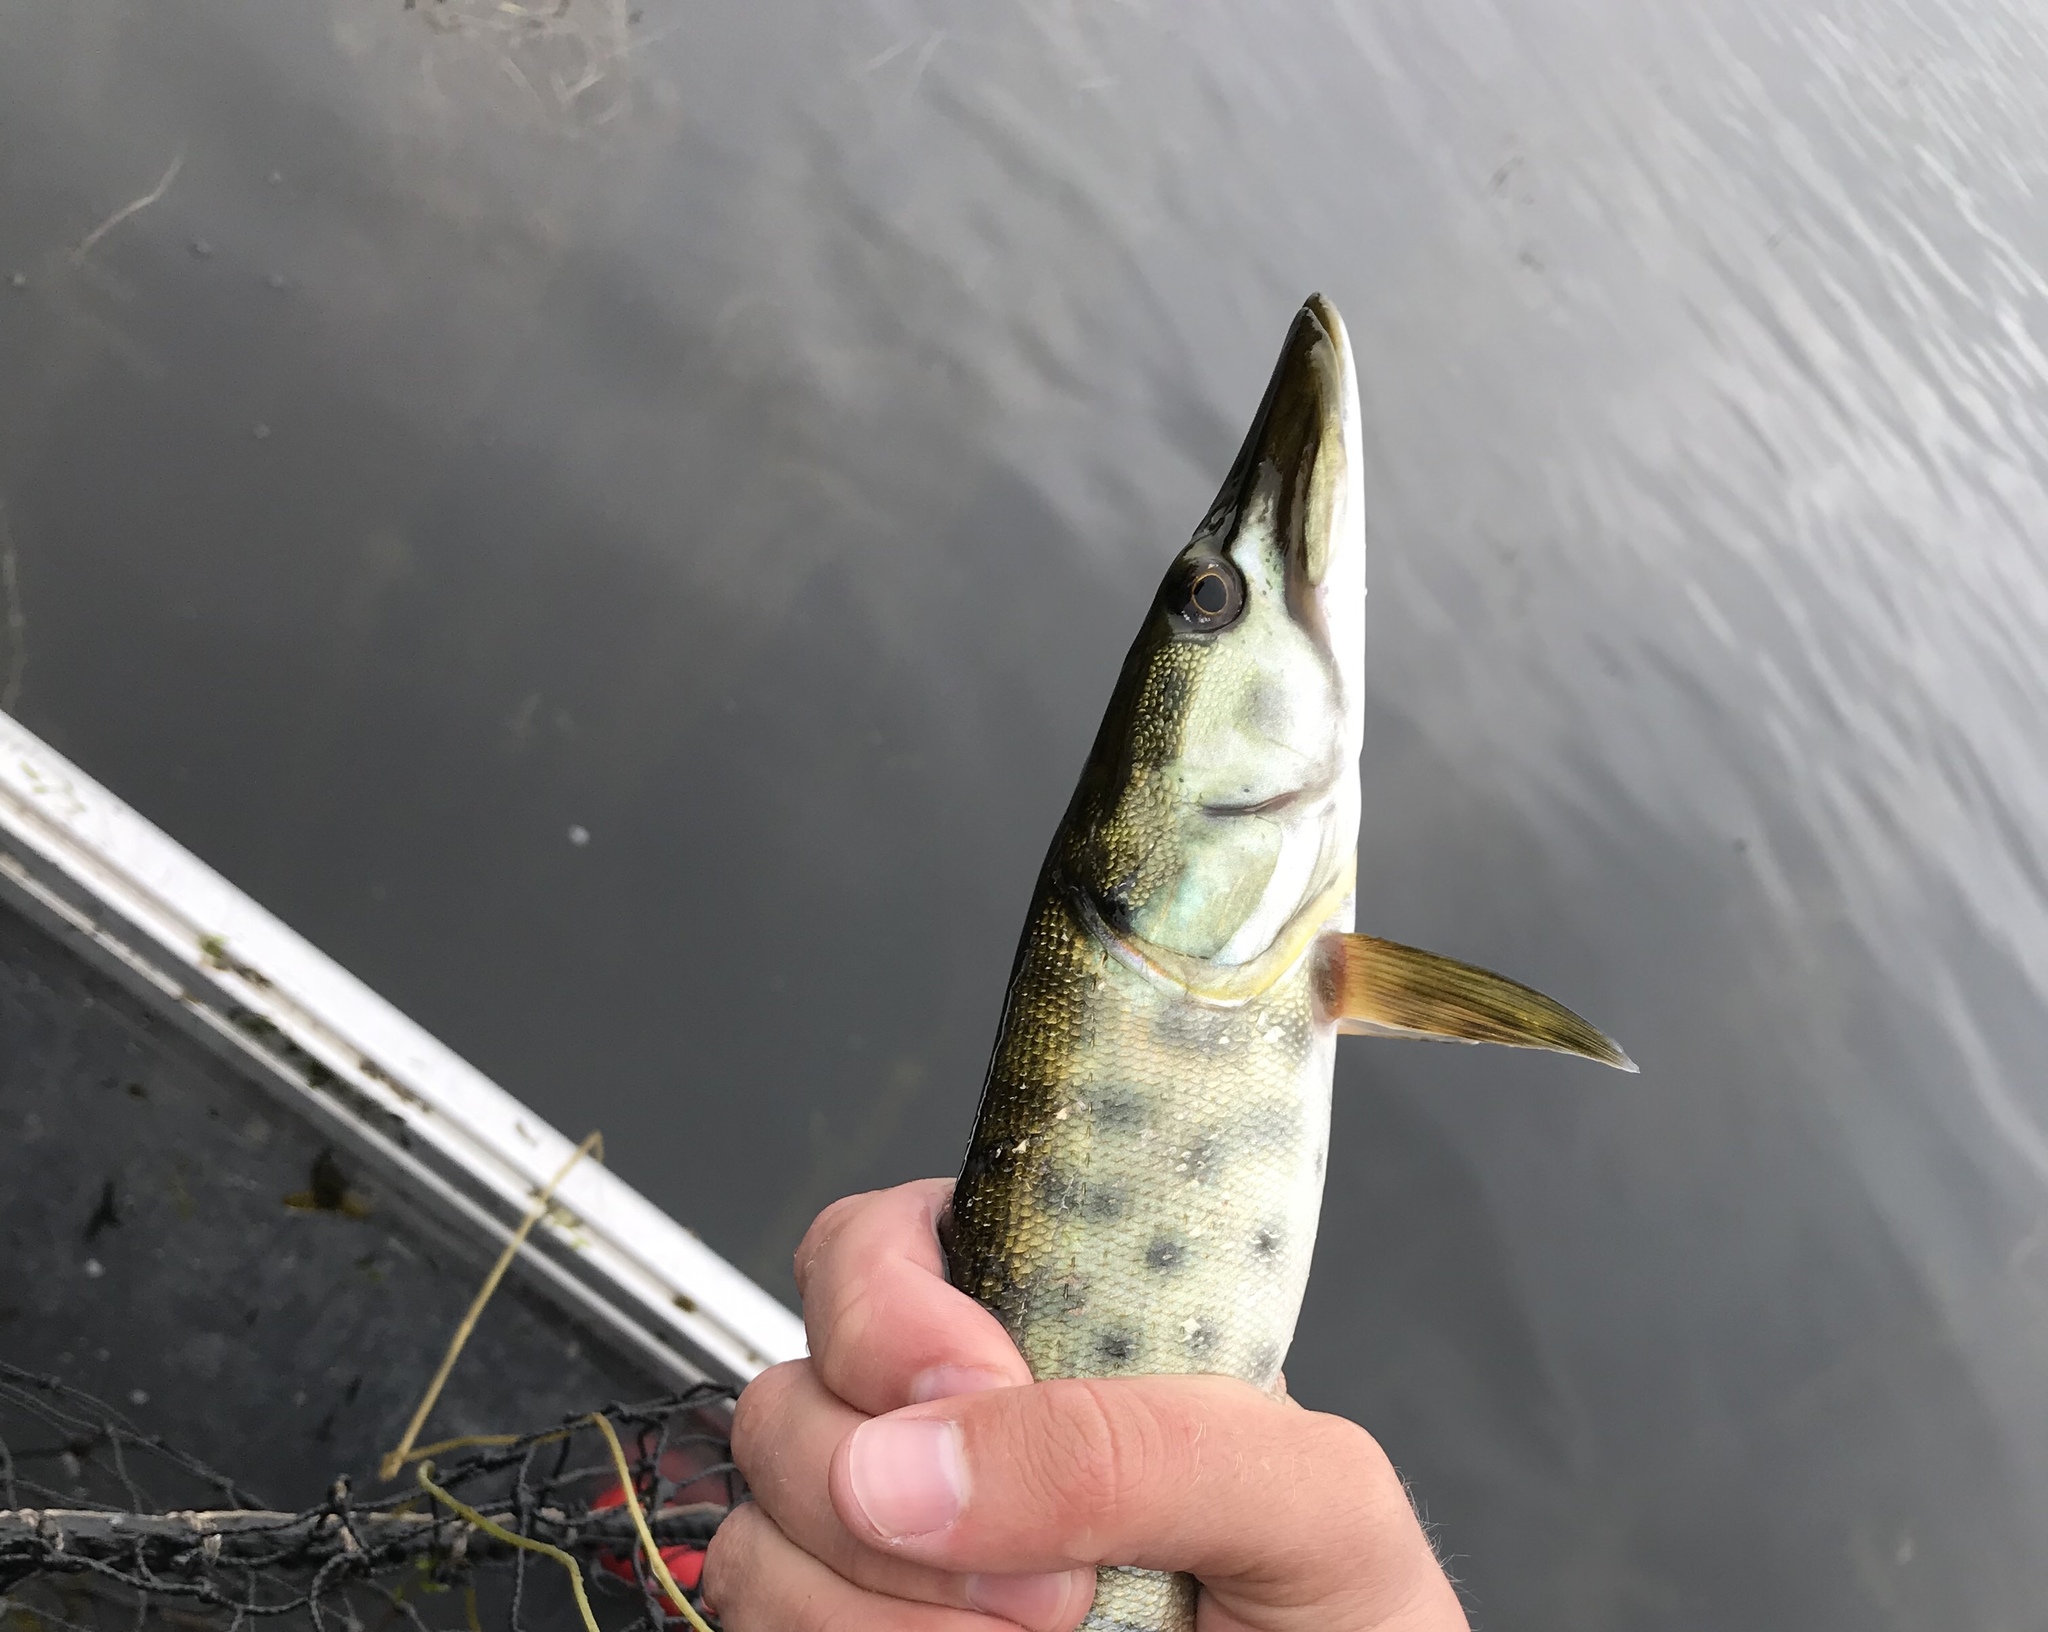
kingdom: Animalia
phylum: Chordata
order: Esociformes
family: Esocidae
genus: Esox
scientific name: Esox masquinongy
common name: Muskellunge
